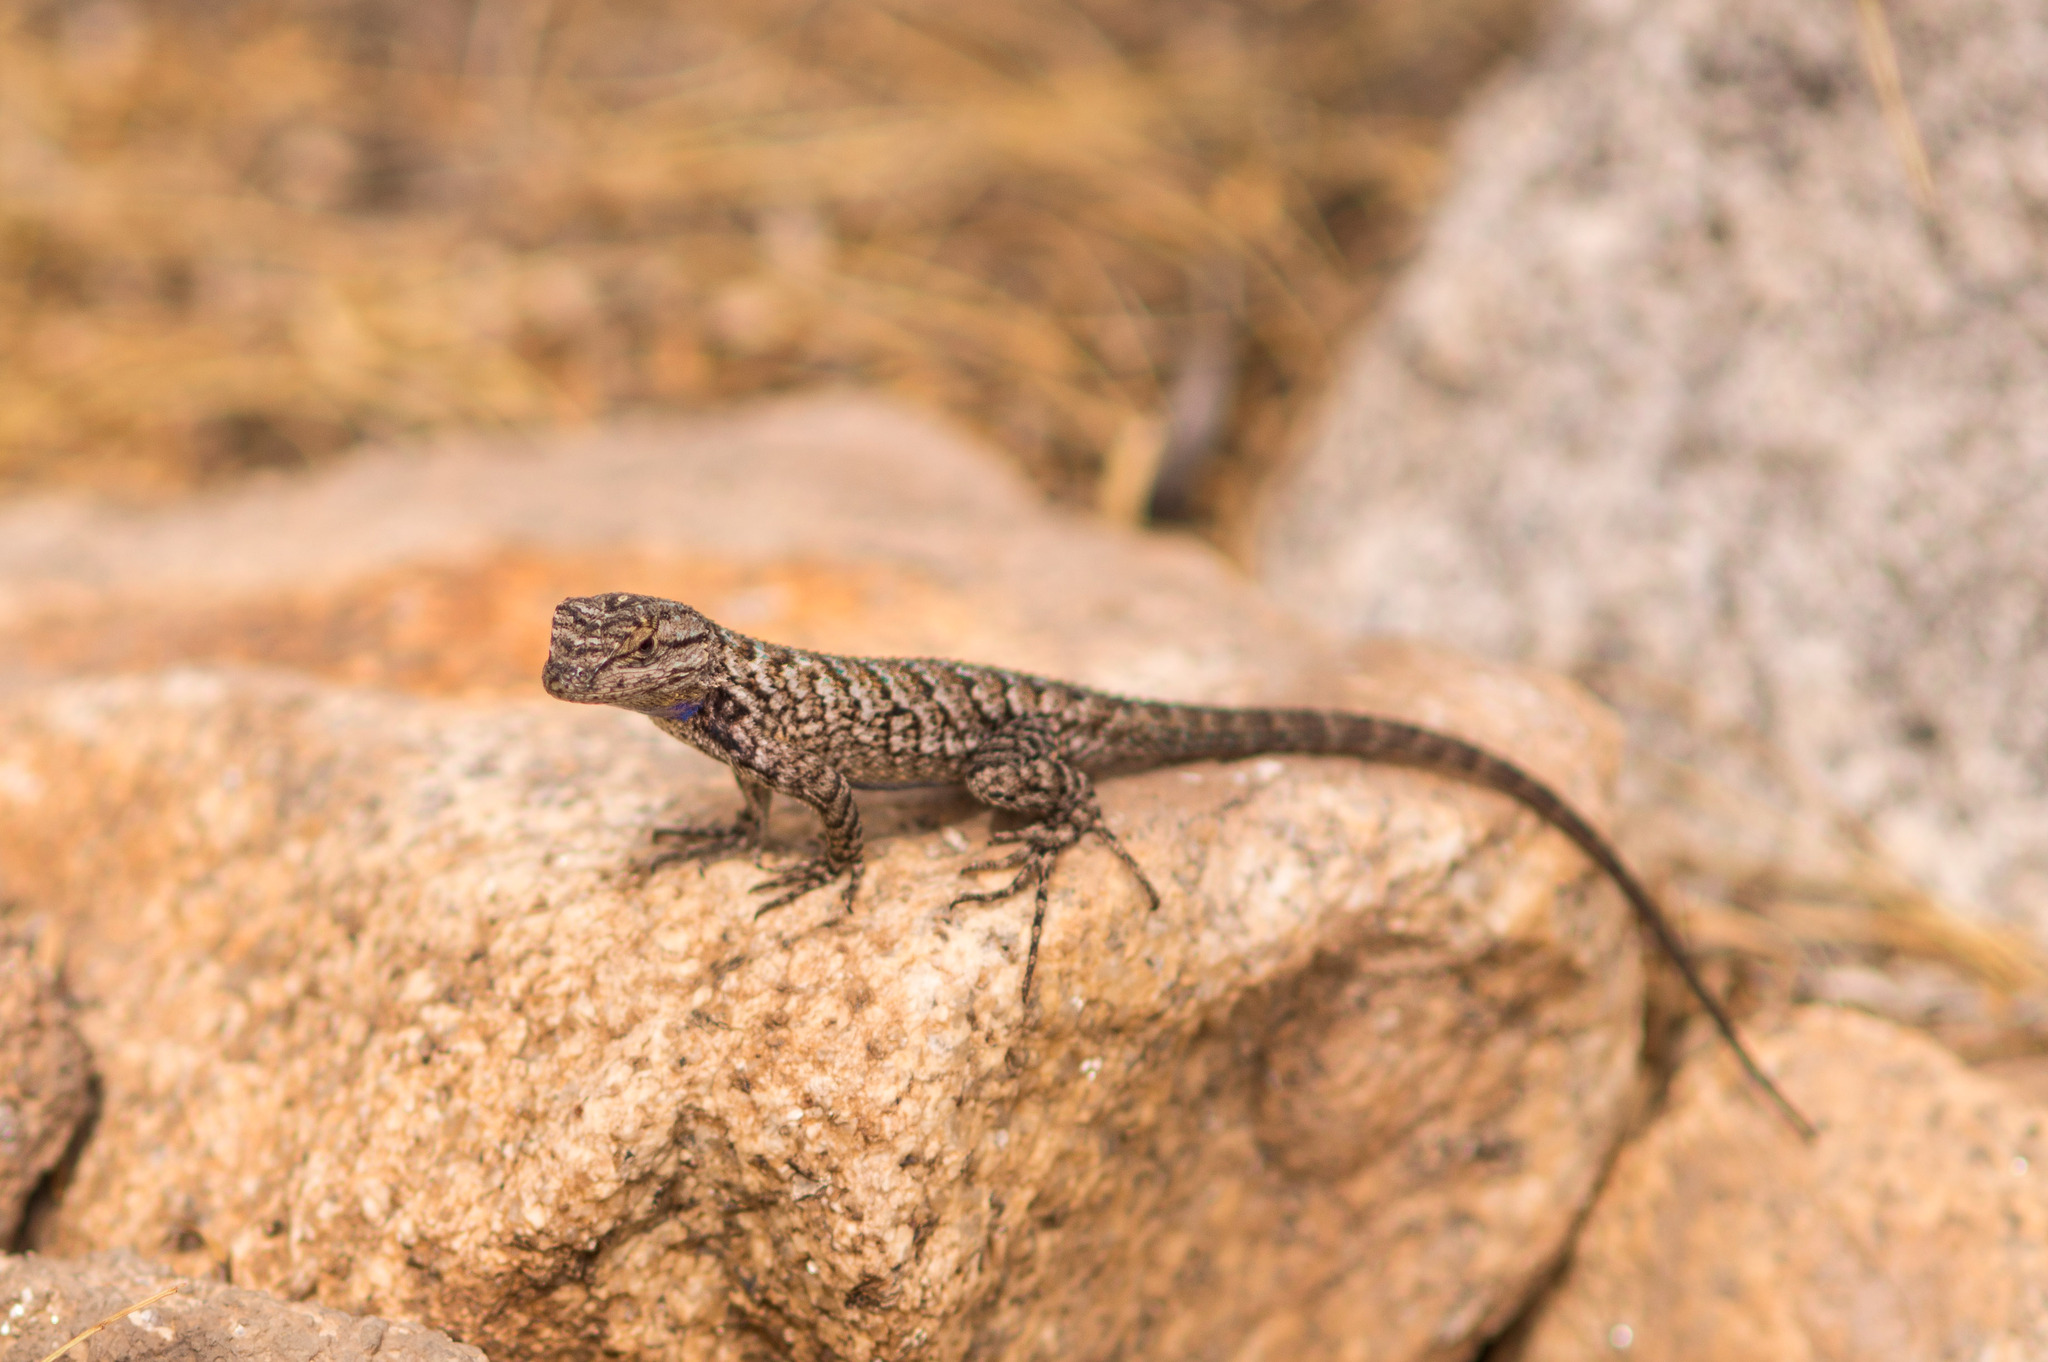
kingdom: Animalia
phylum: Chordata
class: Squamata
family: Phrynosomatidae
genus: Sceloporus
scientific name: Sceloporus occidentalis
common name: Western fence lizard
